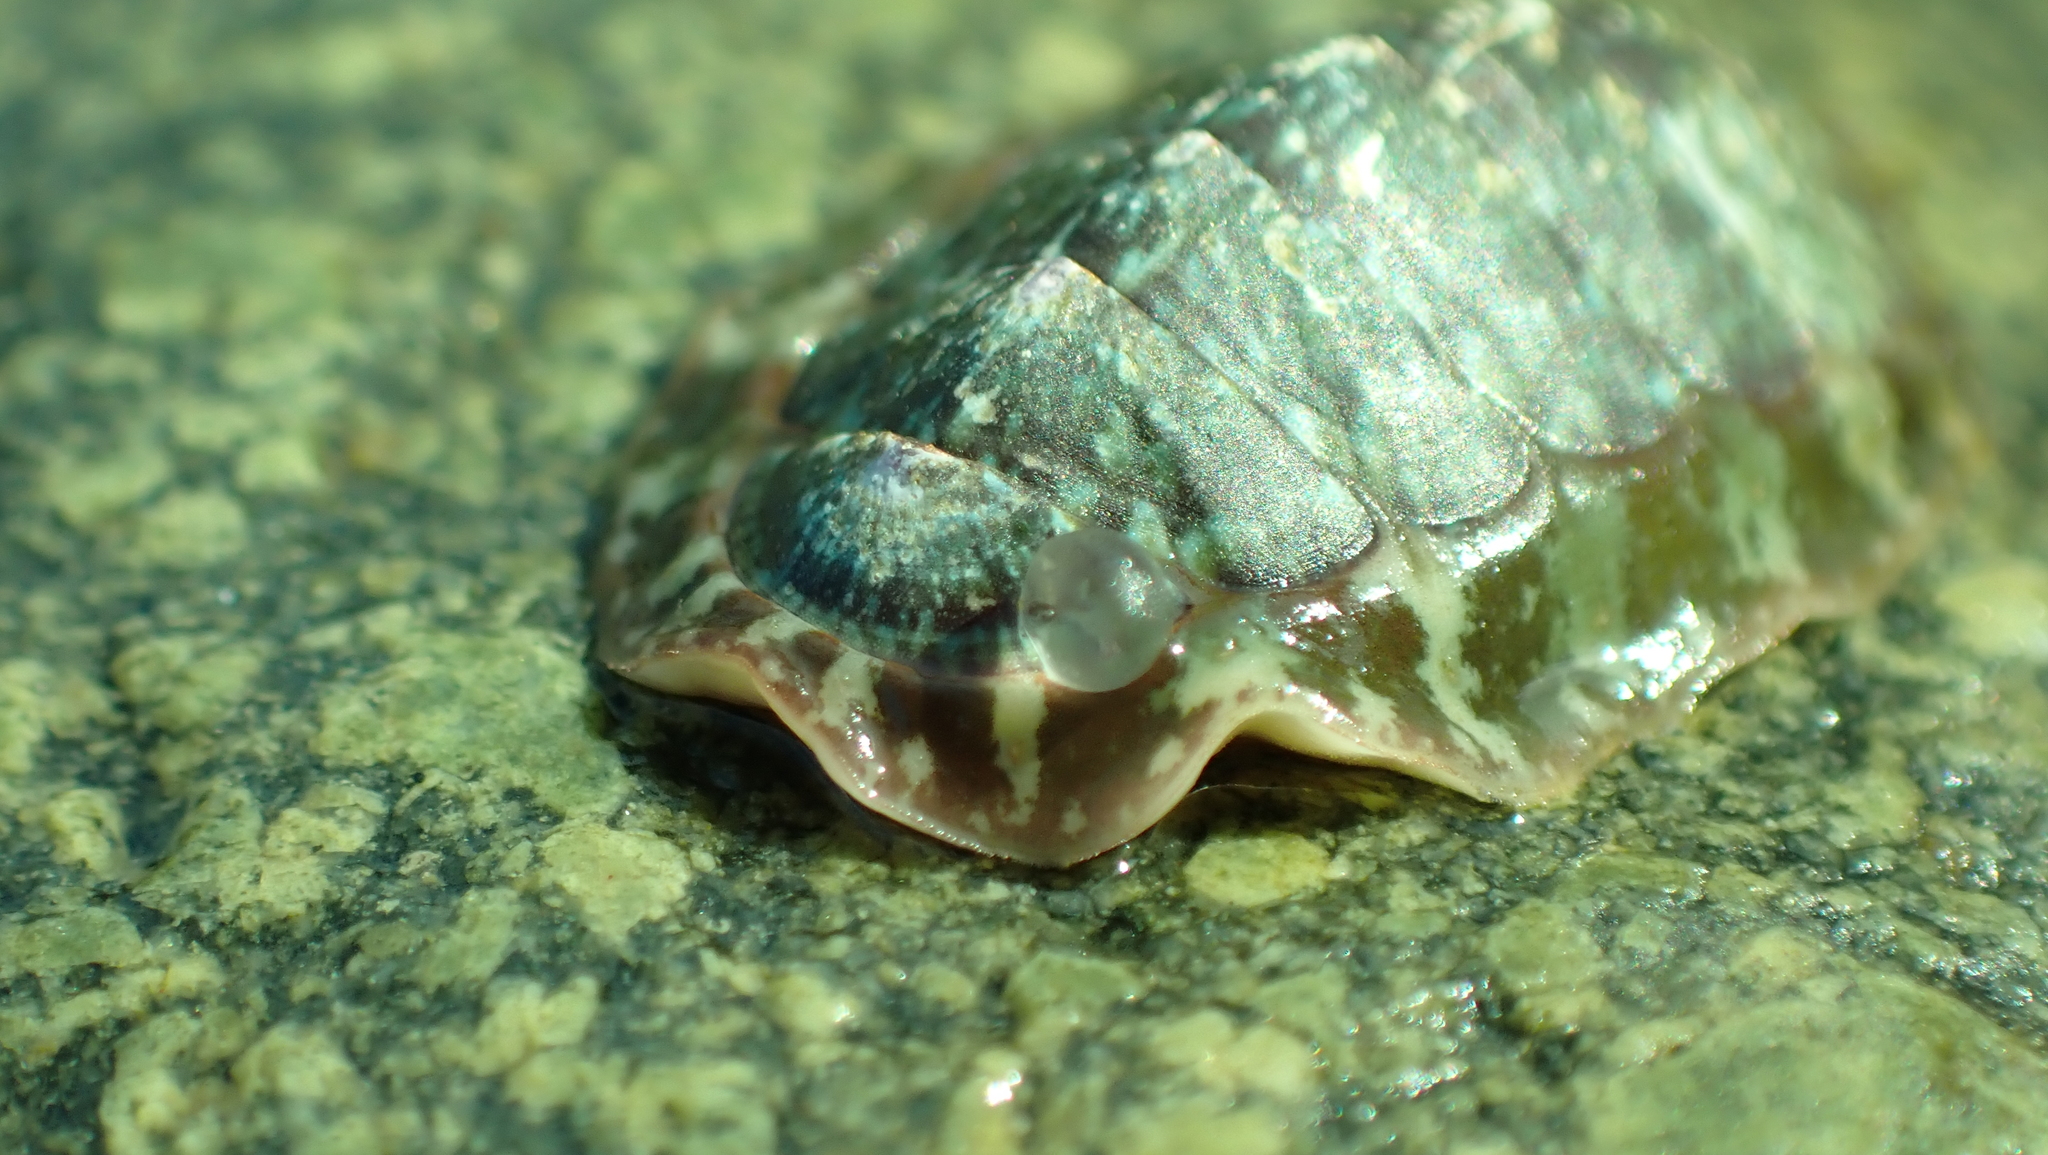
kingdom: Animalia
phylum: Mollusca
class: Polyplacophora
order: Chitonida
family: Mopaliidae
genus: Dendrochiton
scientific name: Dendrochiton flectens
